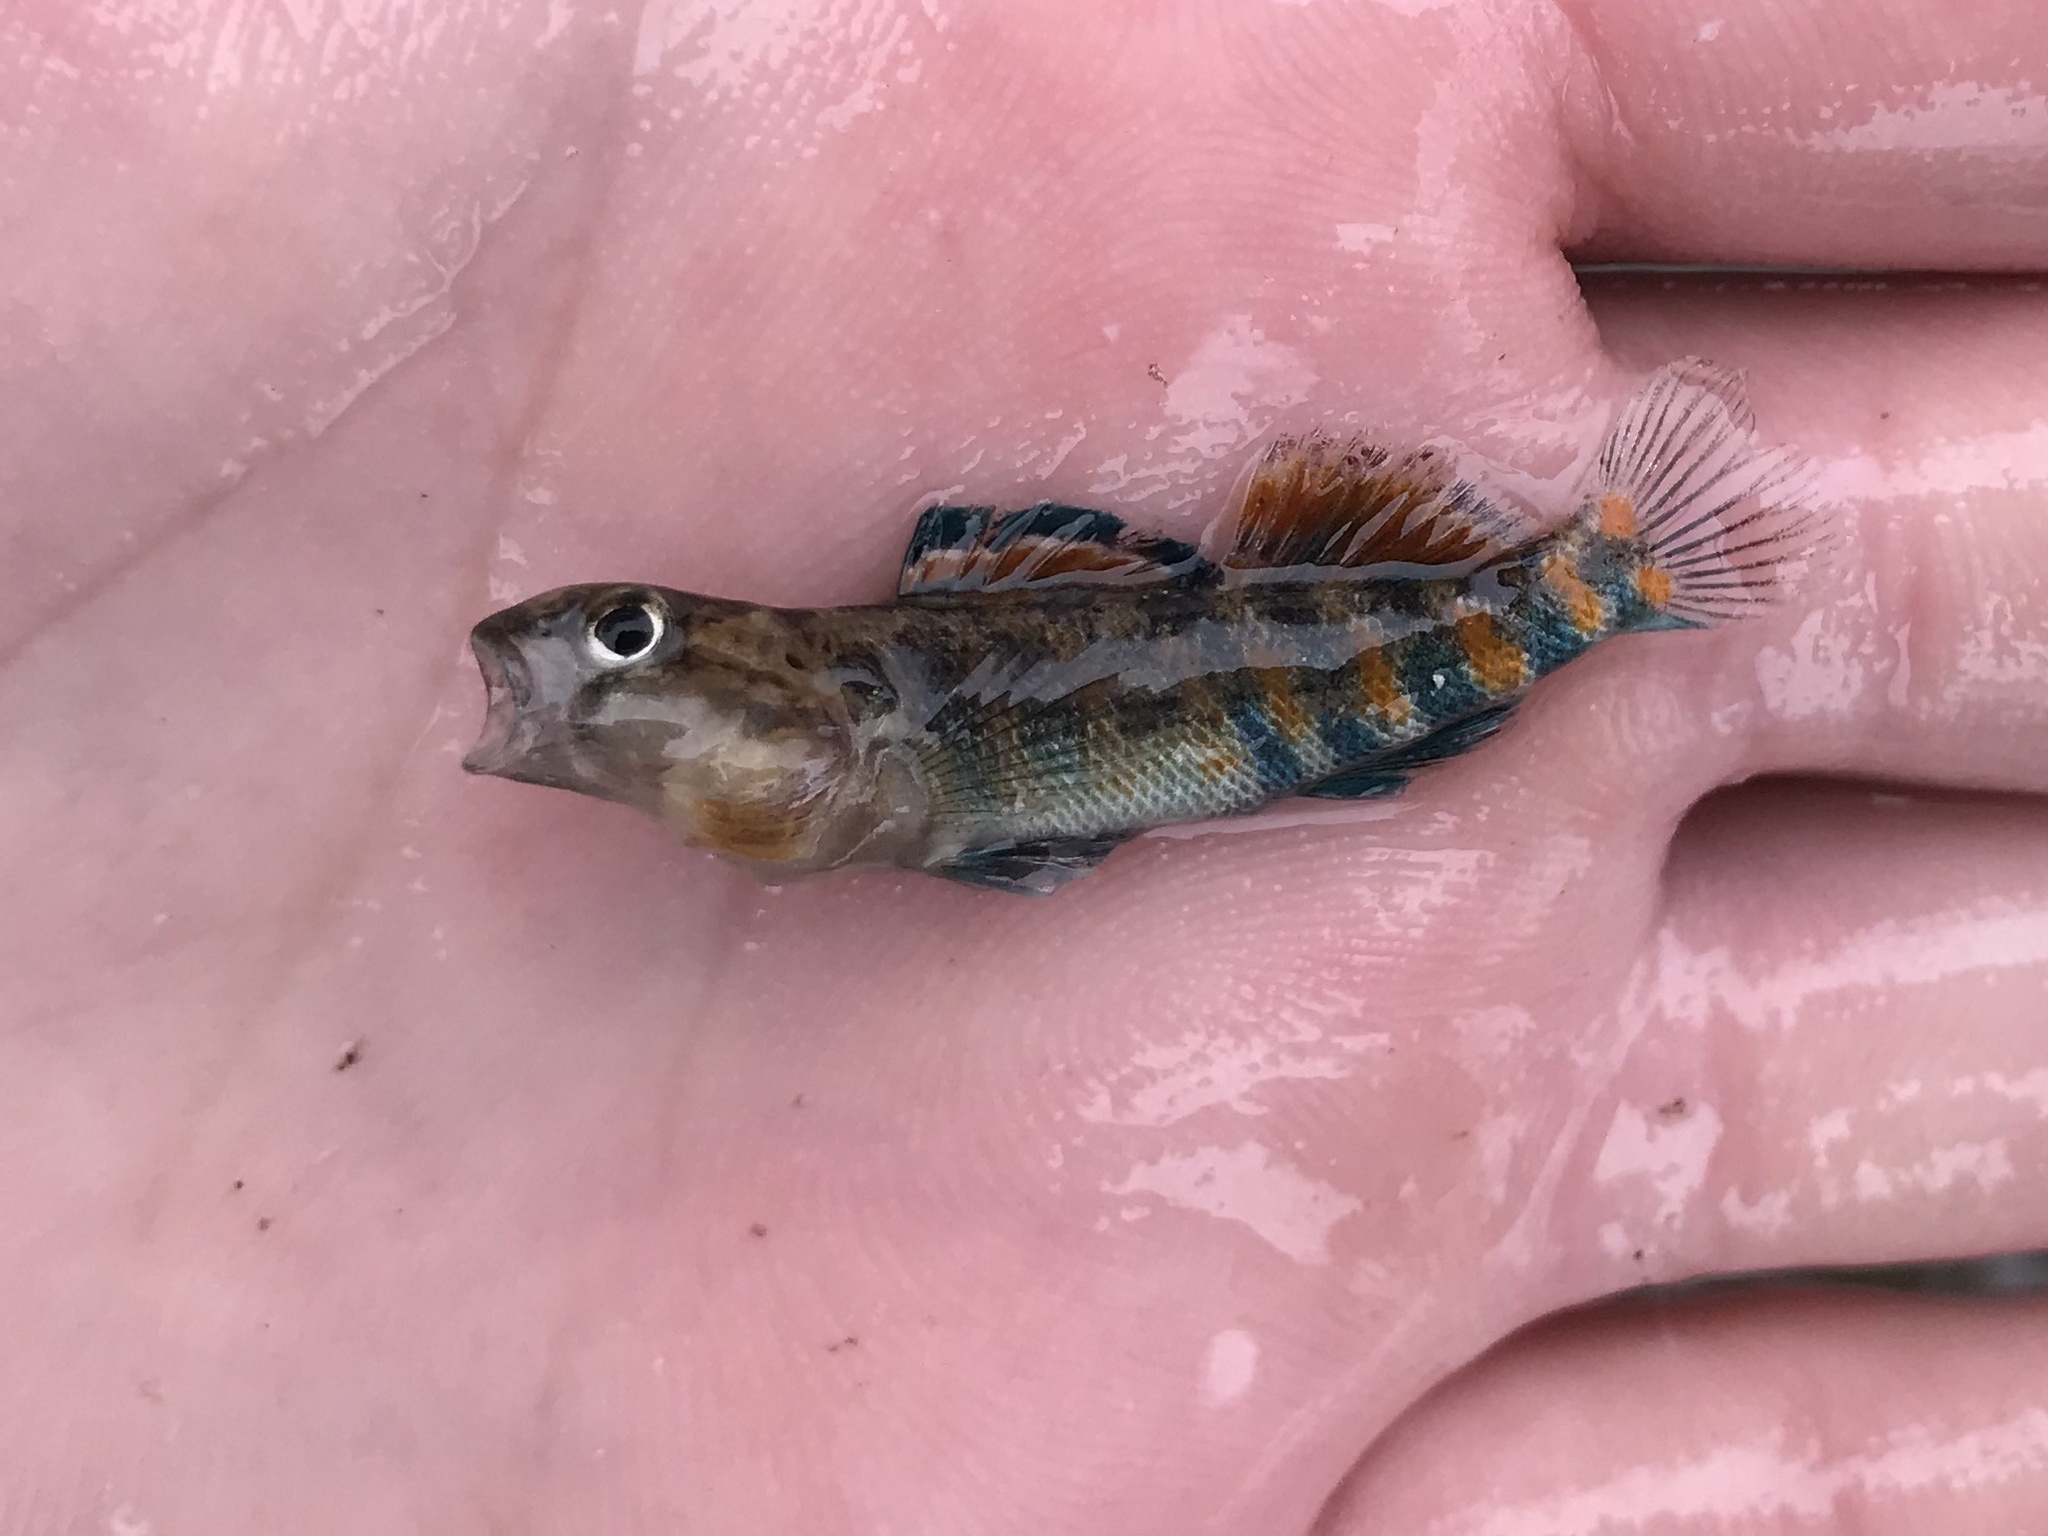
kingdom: Animalia
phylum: Chordata
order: Perciformes
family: Percidae
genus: Etheostoma
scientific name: Etheostoma spectabile
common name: Orangethroat darter
